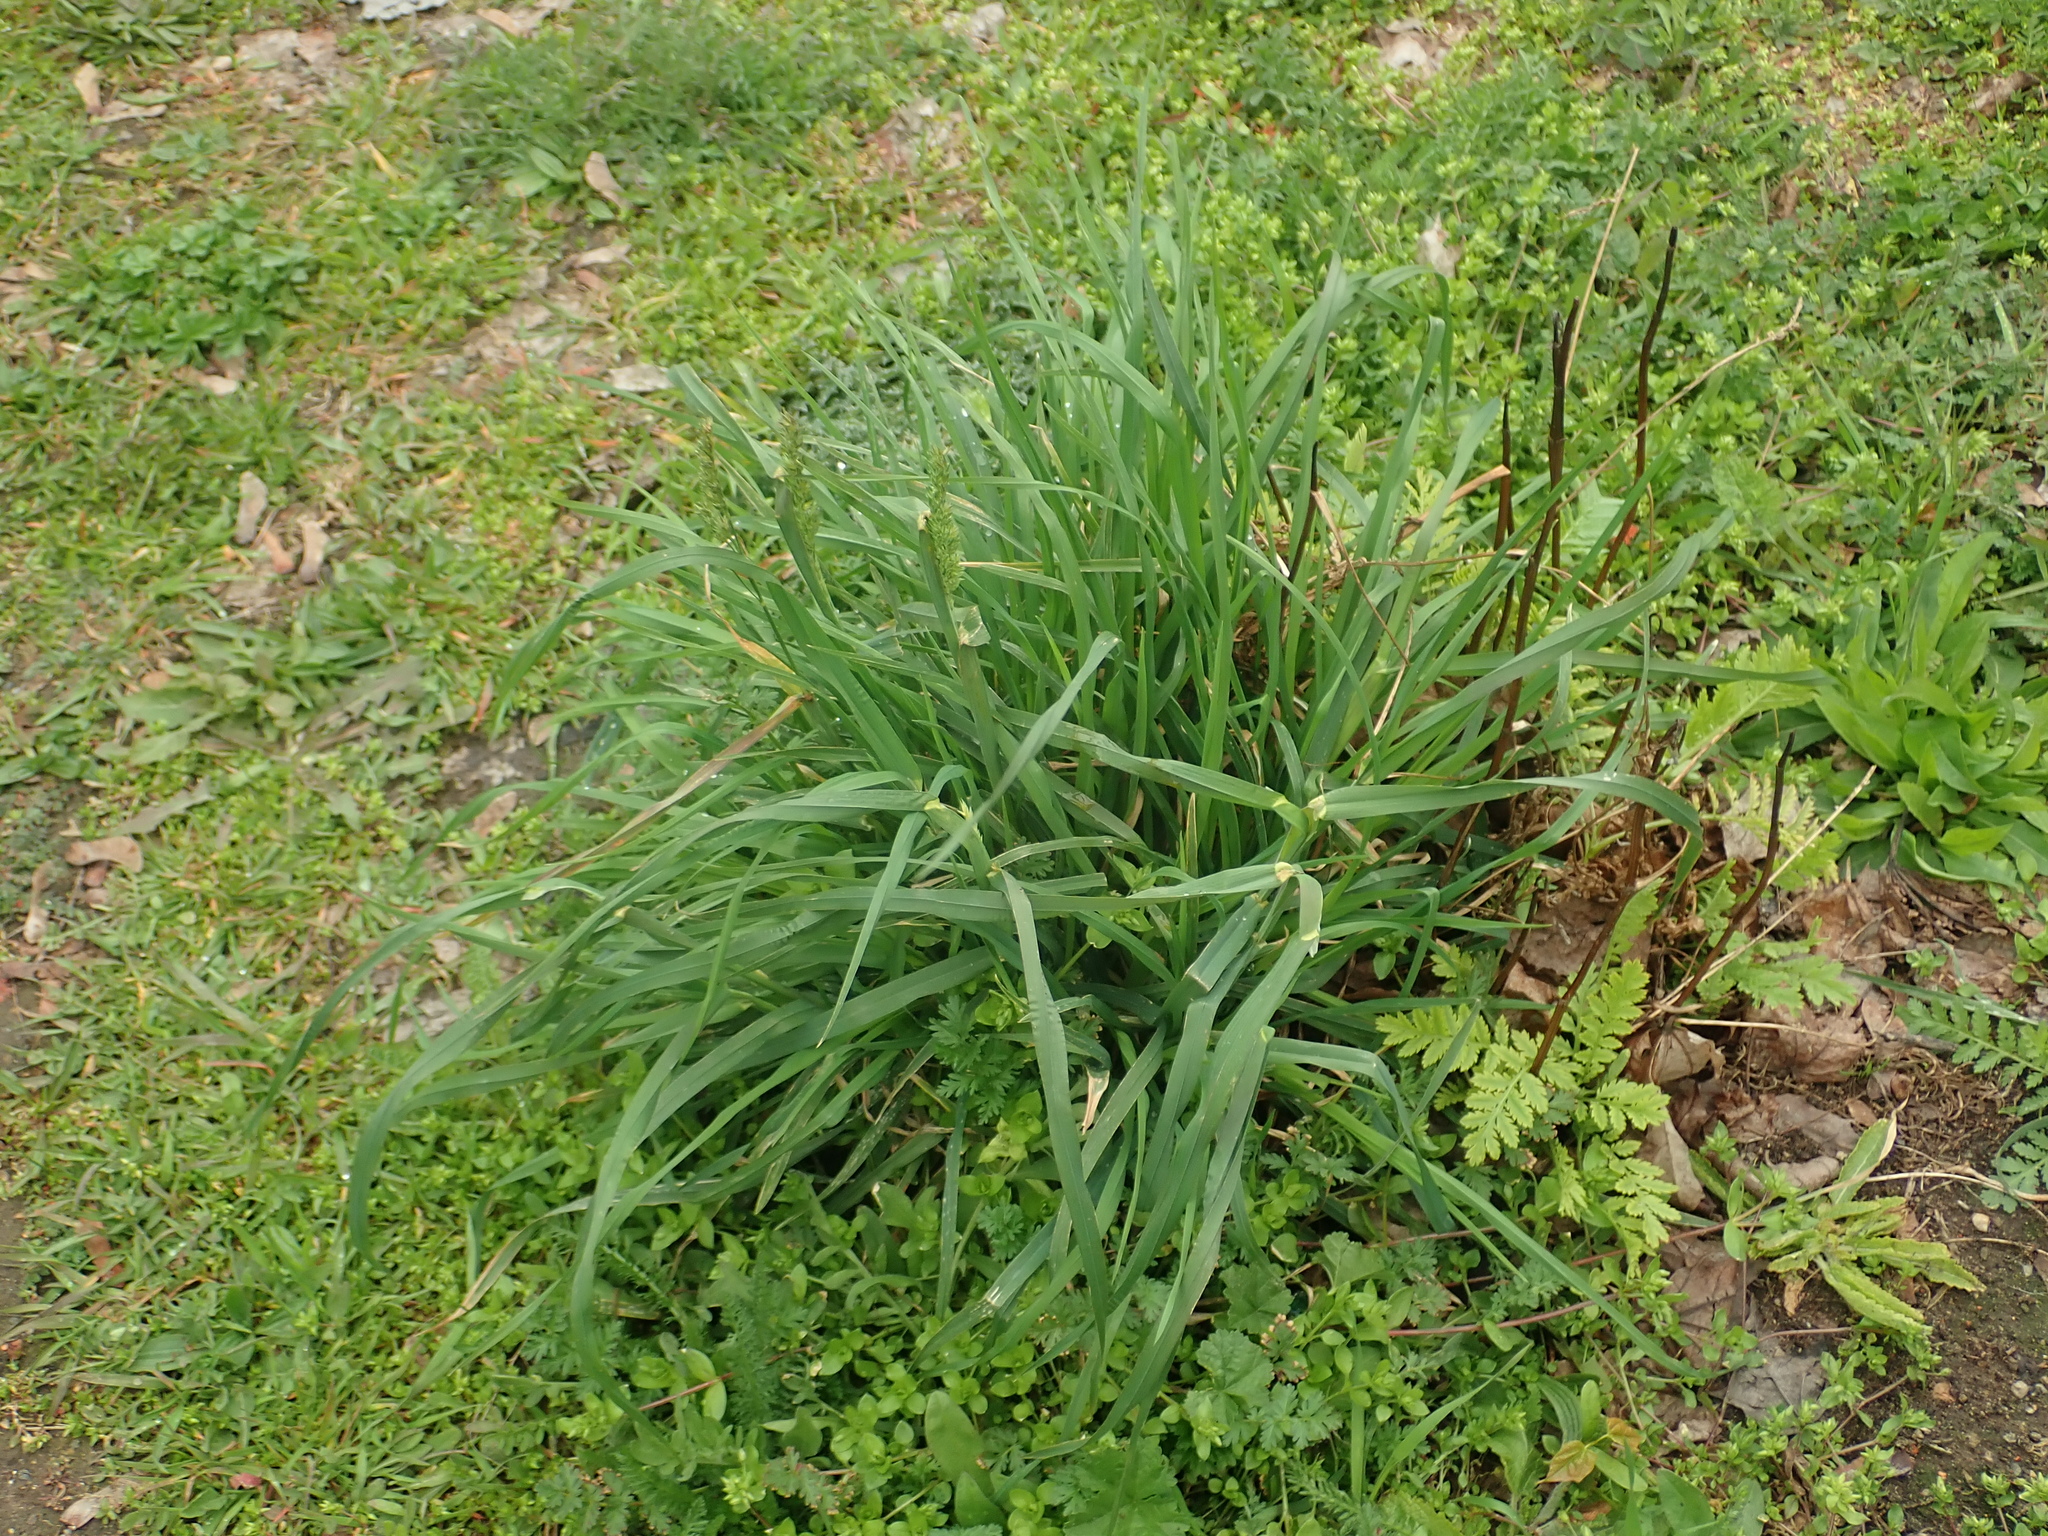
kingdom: Plantae
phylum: Tracheophyta
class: Liliopsida
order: Poales
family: Poaceae
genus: Dactylis
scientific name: Dactylis glomerata
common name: Orchardgrass
